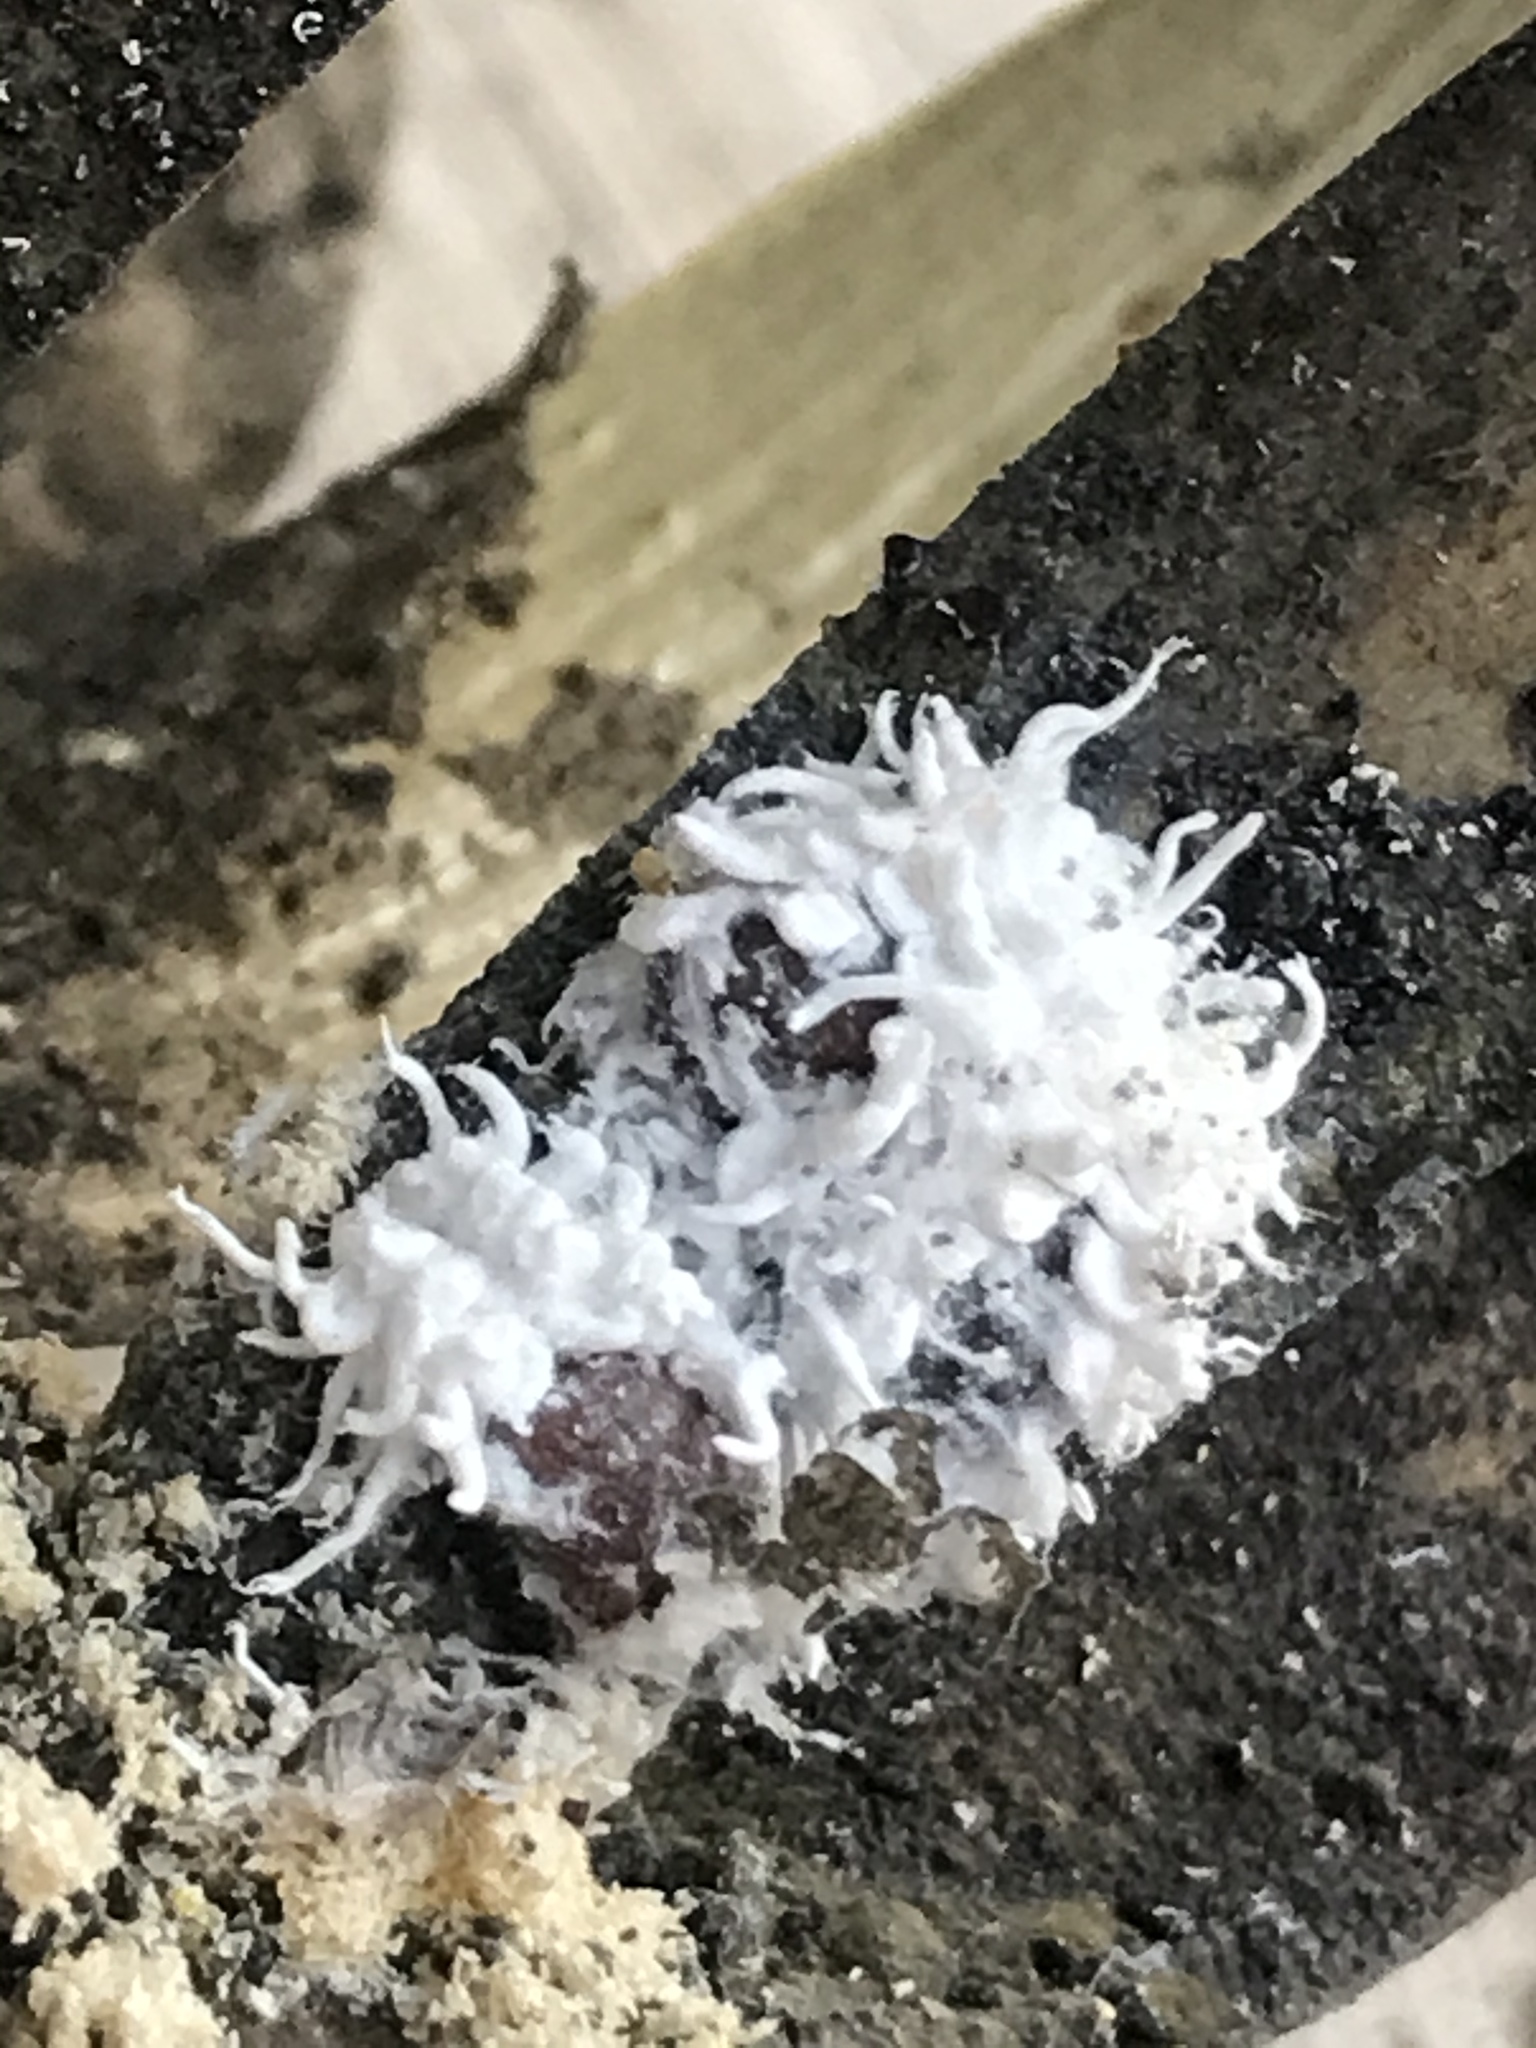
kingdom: Animalia
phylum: Arthropoda
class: Insecta
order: Coleoptera
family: Coccinellidae
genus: Cryptolaemus
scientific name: Cryptolaemus montrouzieri
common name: Mealybug destroyer
